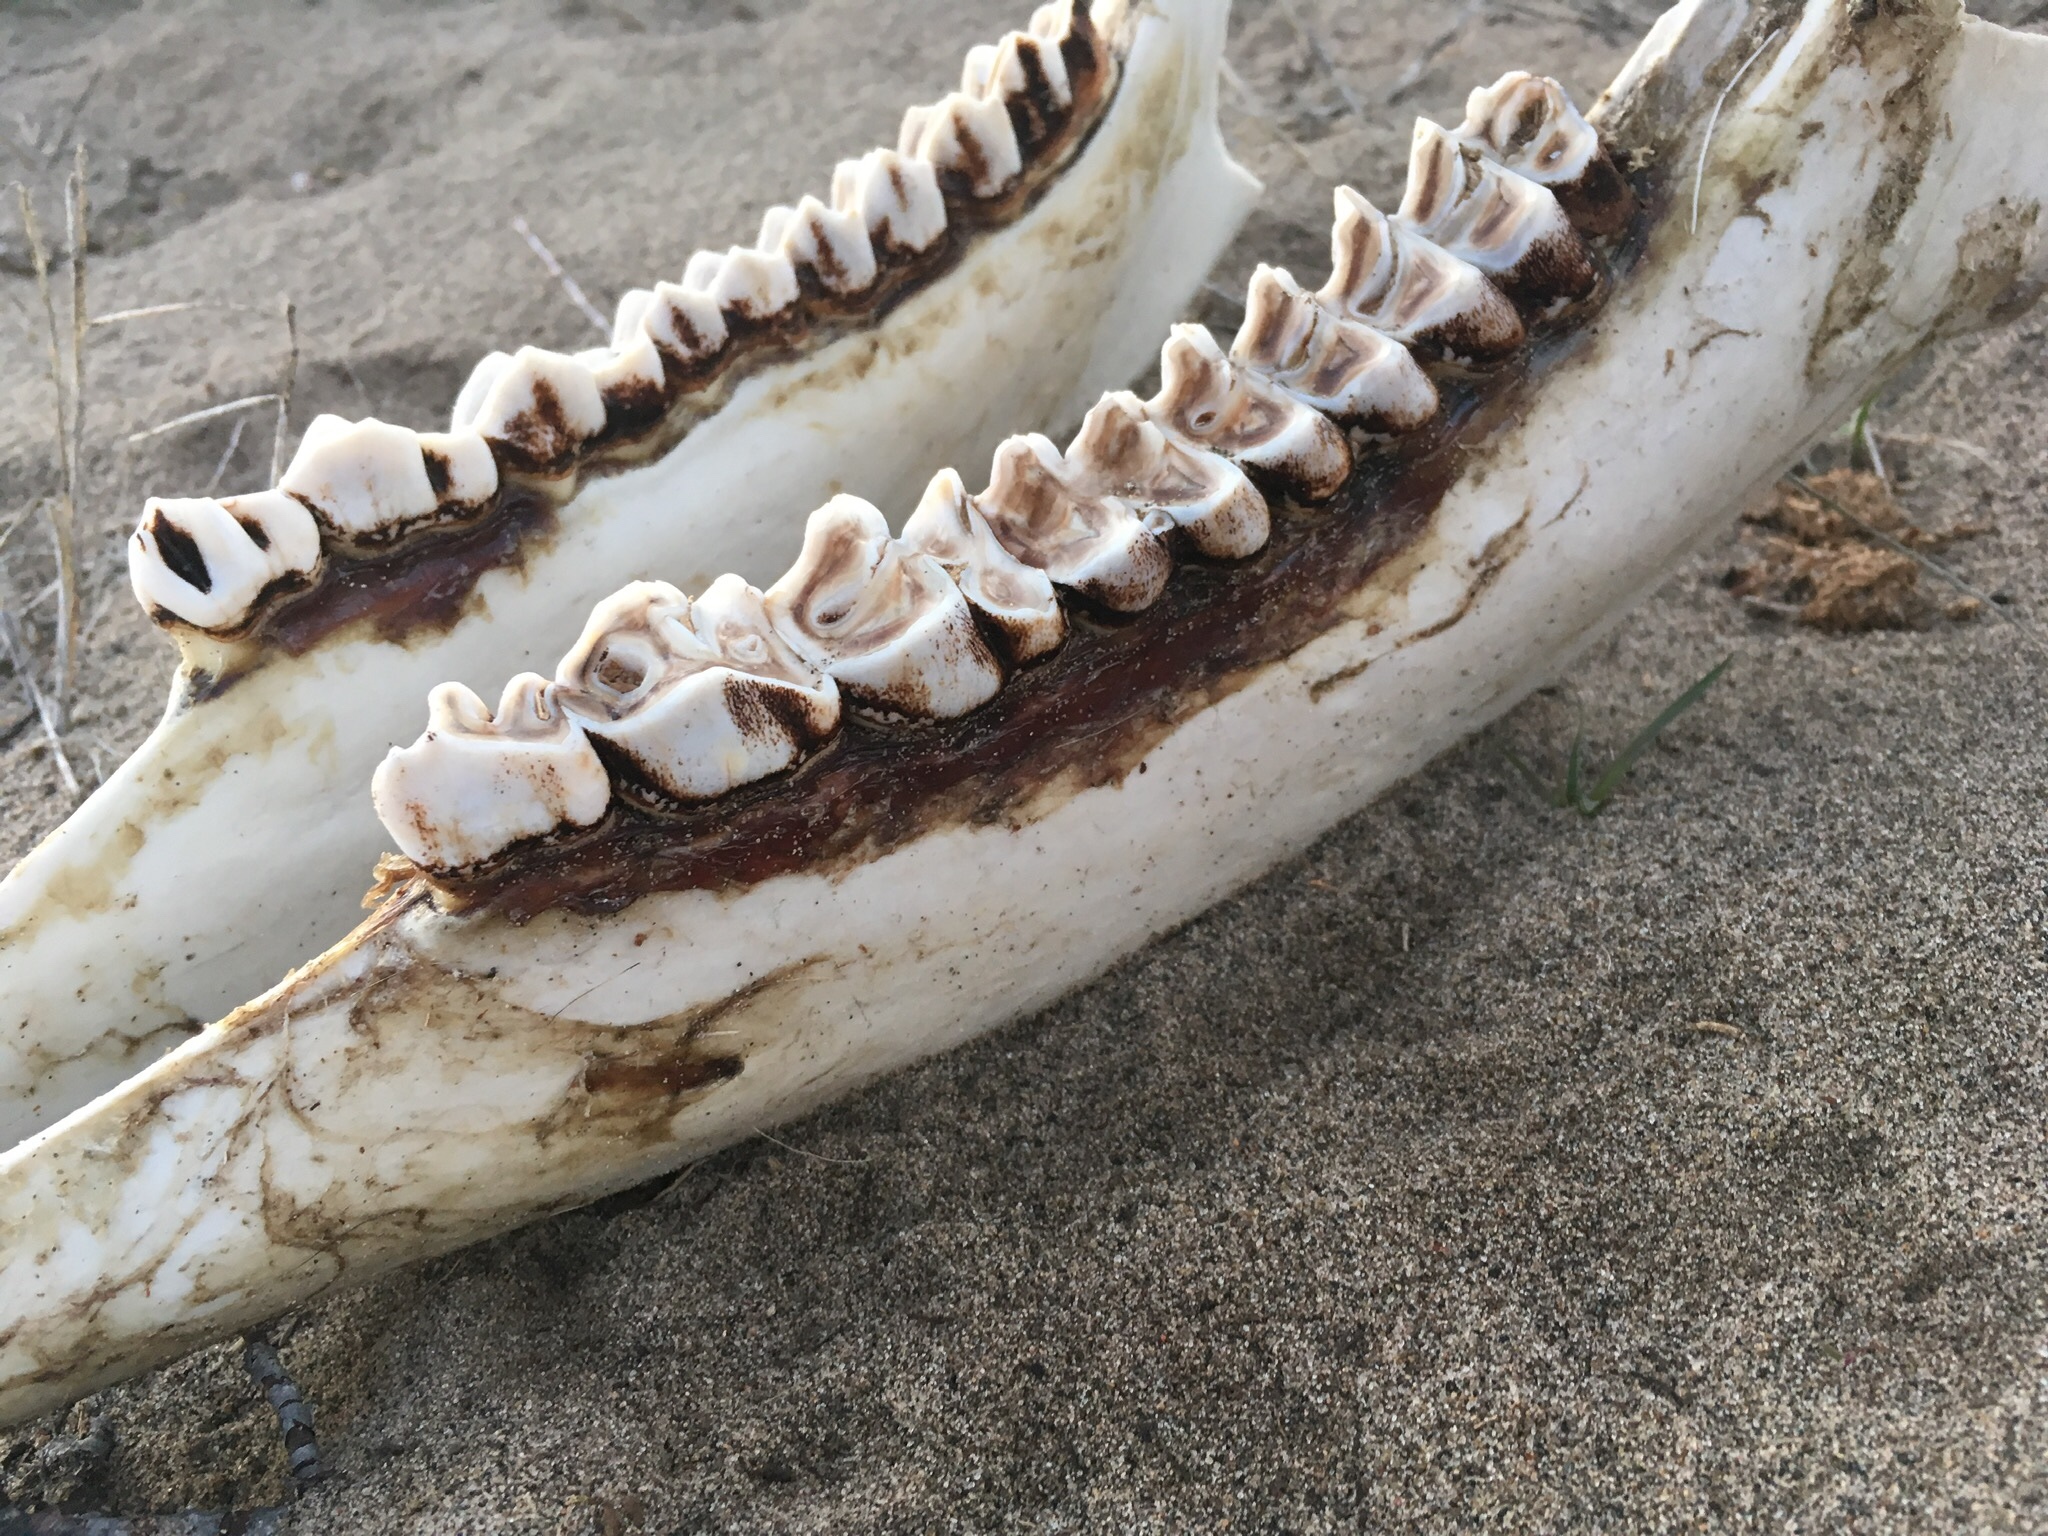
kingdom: Animalia
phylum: Chordata
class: Mammalia
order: Artiodactyla
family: Cervidae
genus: Alces
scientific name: Alces alces
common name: Moose
